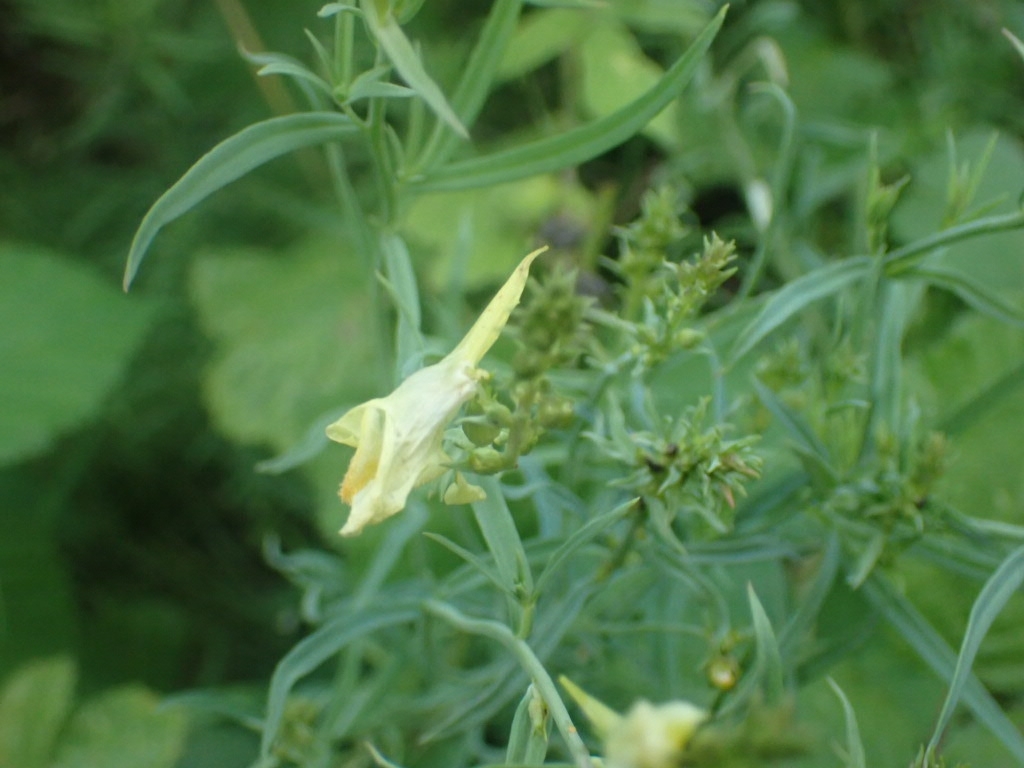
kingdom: Plantae
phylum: Tracheophyta
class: Magnoliopsida
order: Lamiales
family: Plantaginaceae
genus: Linaria
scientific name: Linaria vulgaris
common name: Butter and eggs
